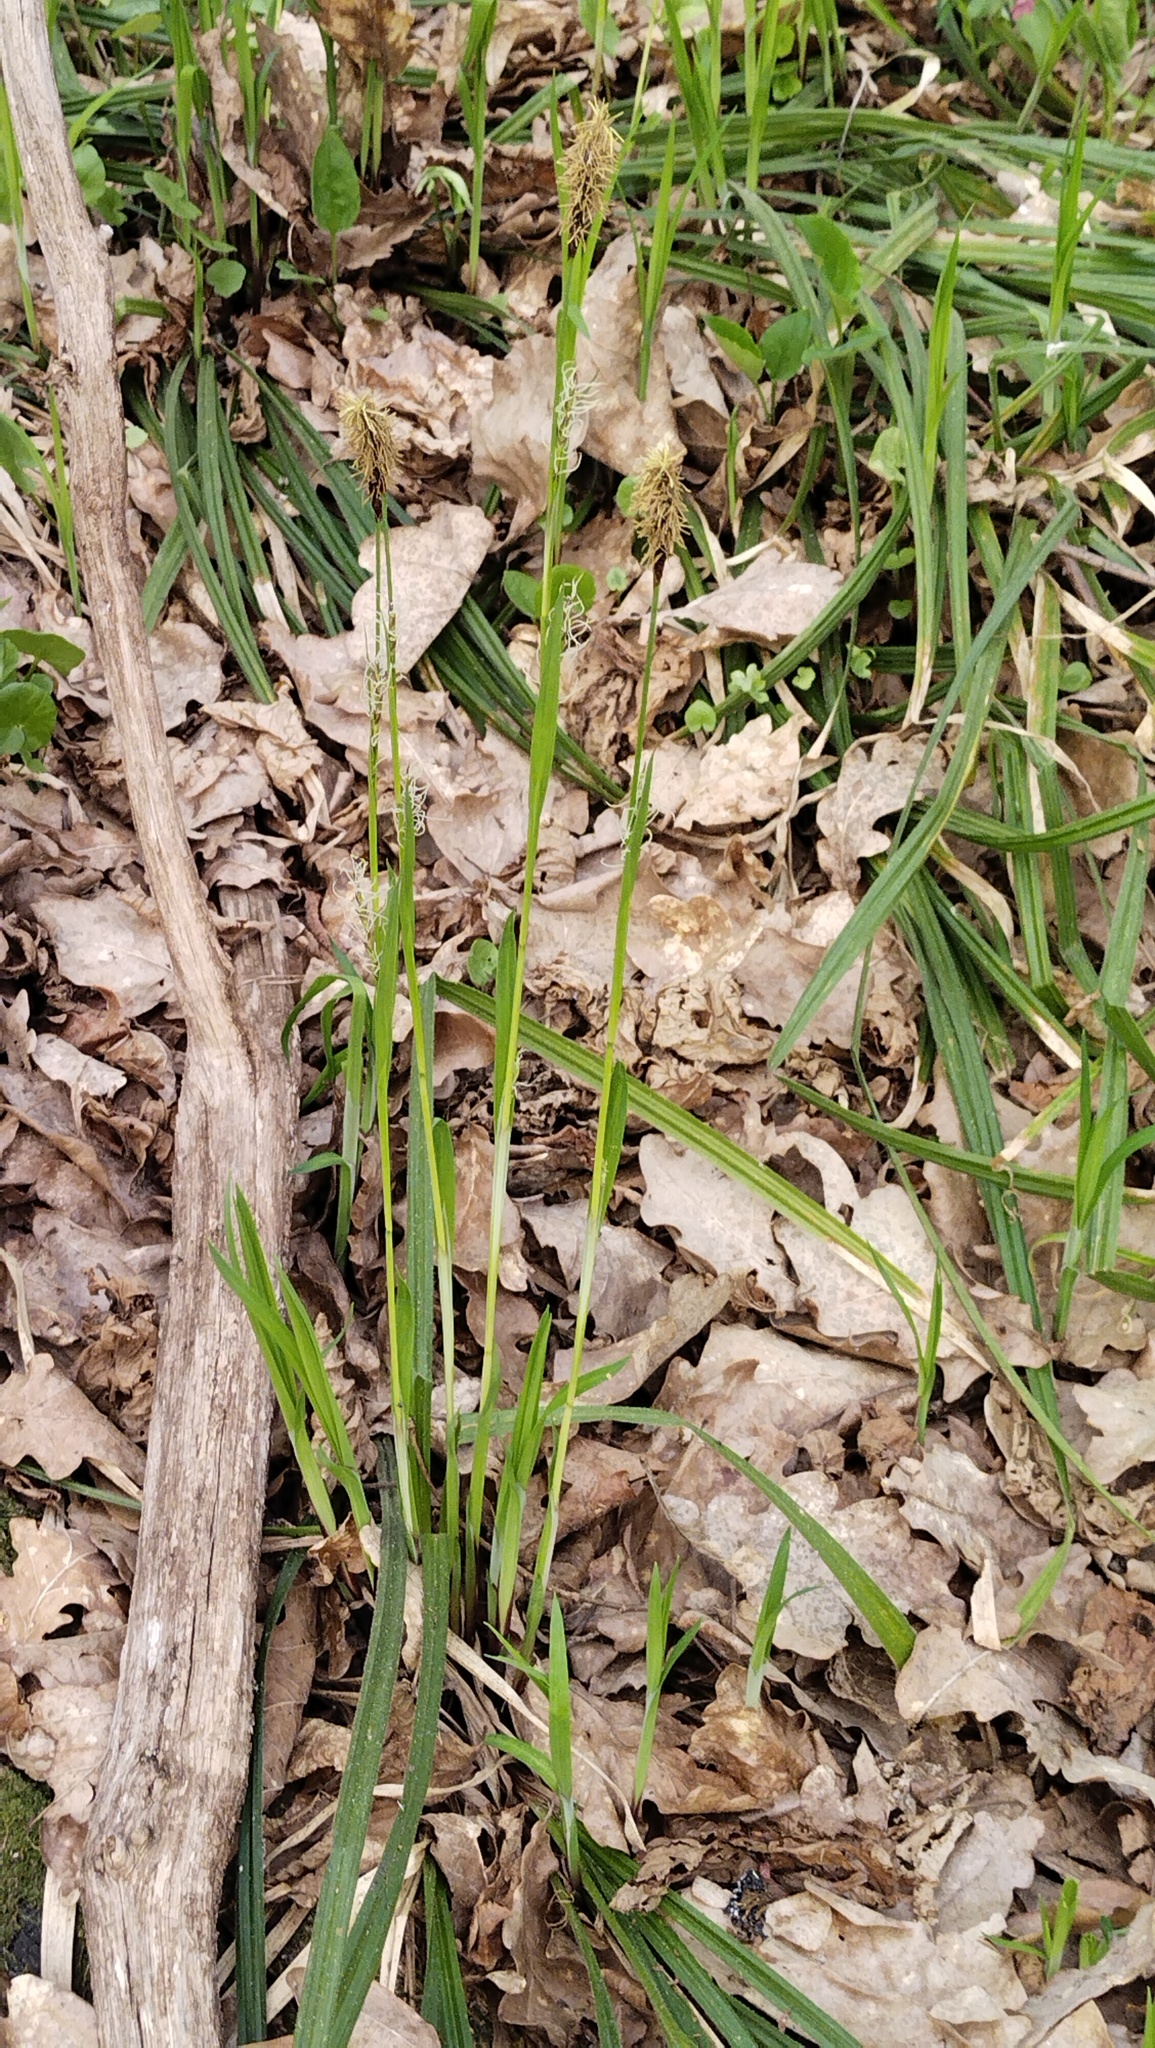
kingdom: Plantae
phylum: Tracheophyta
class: Liliopsida
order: Poales
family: Cyperaceae
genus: Carex
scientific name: Carex pilosa
